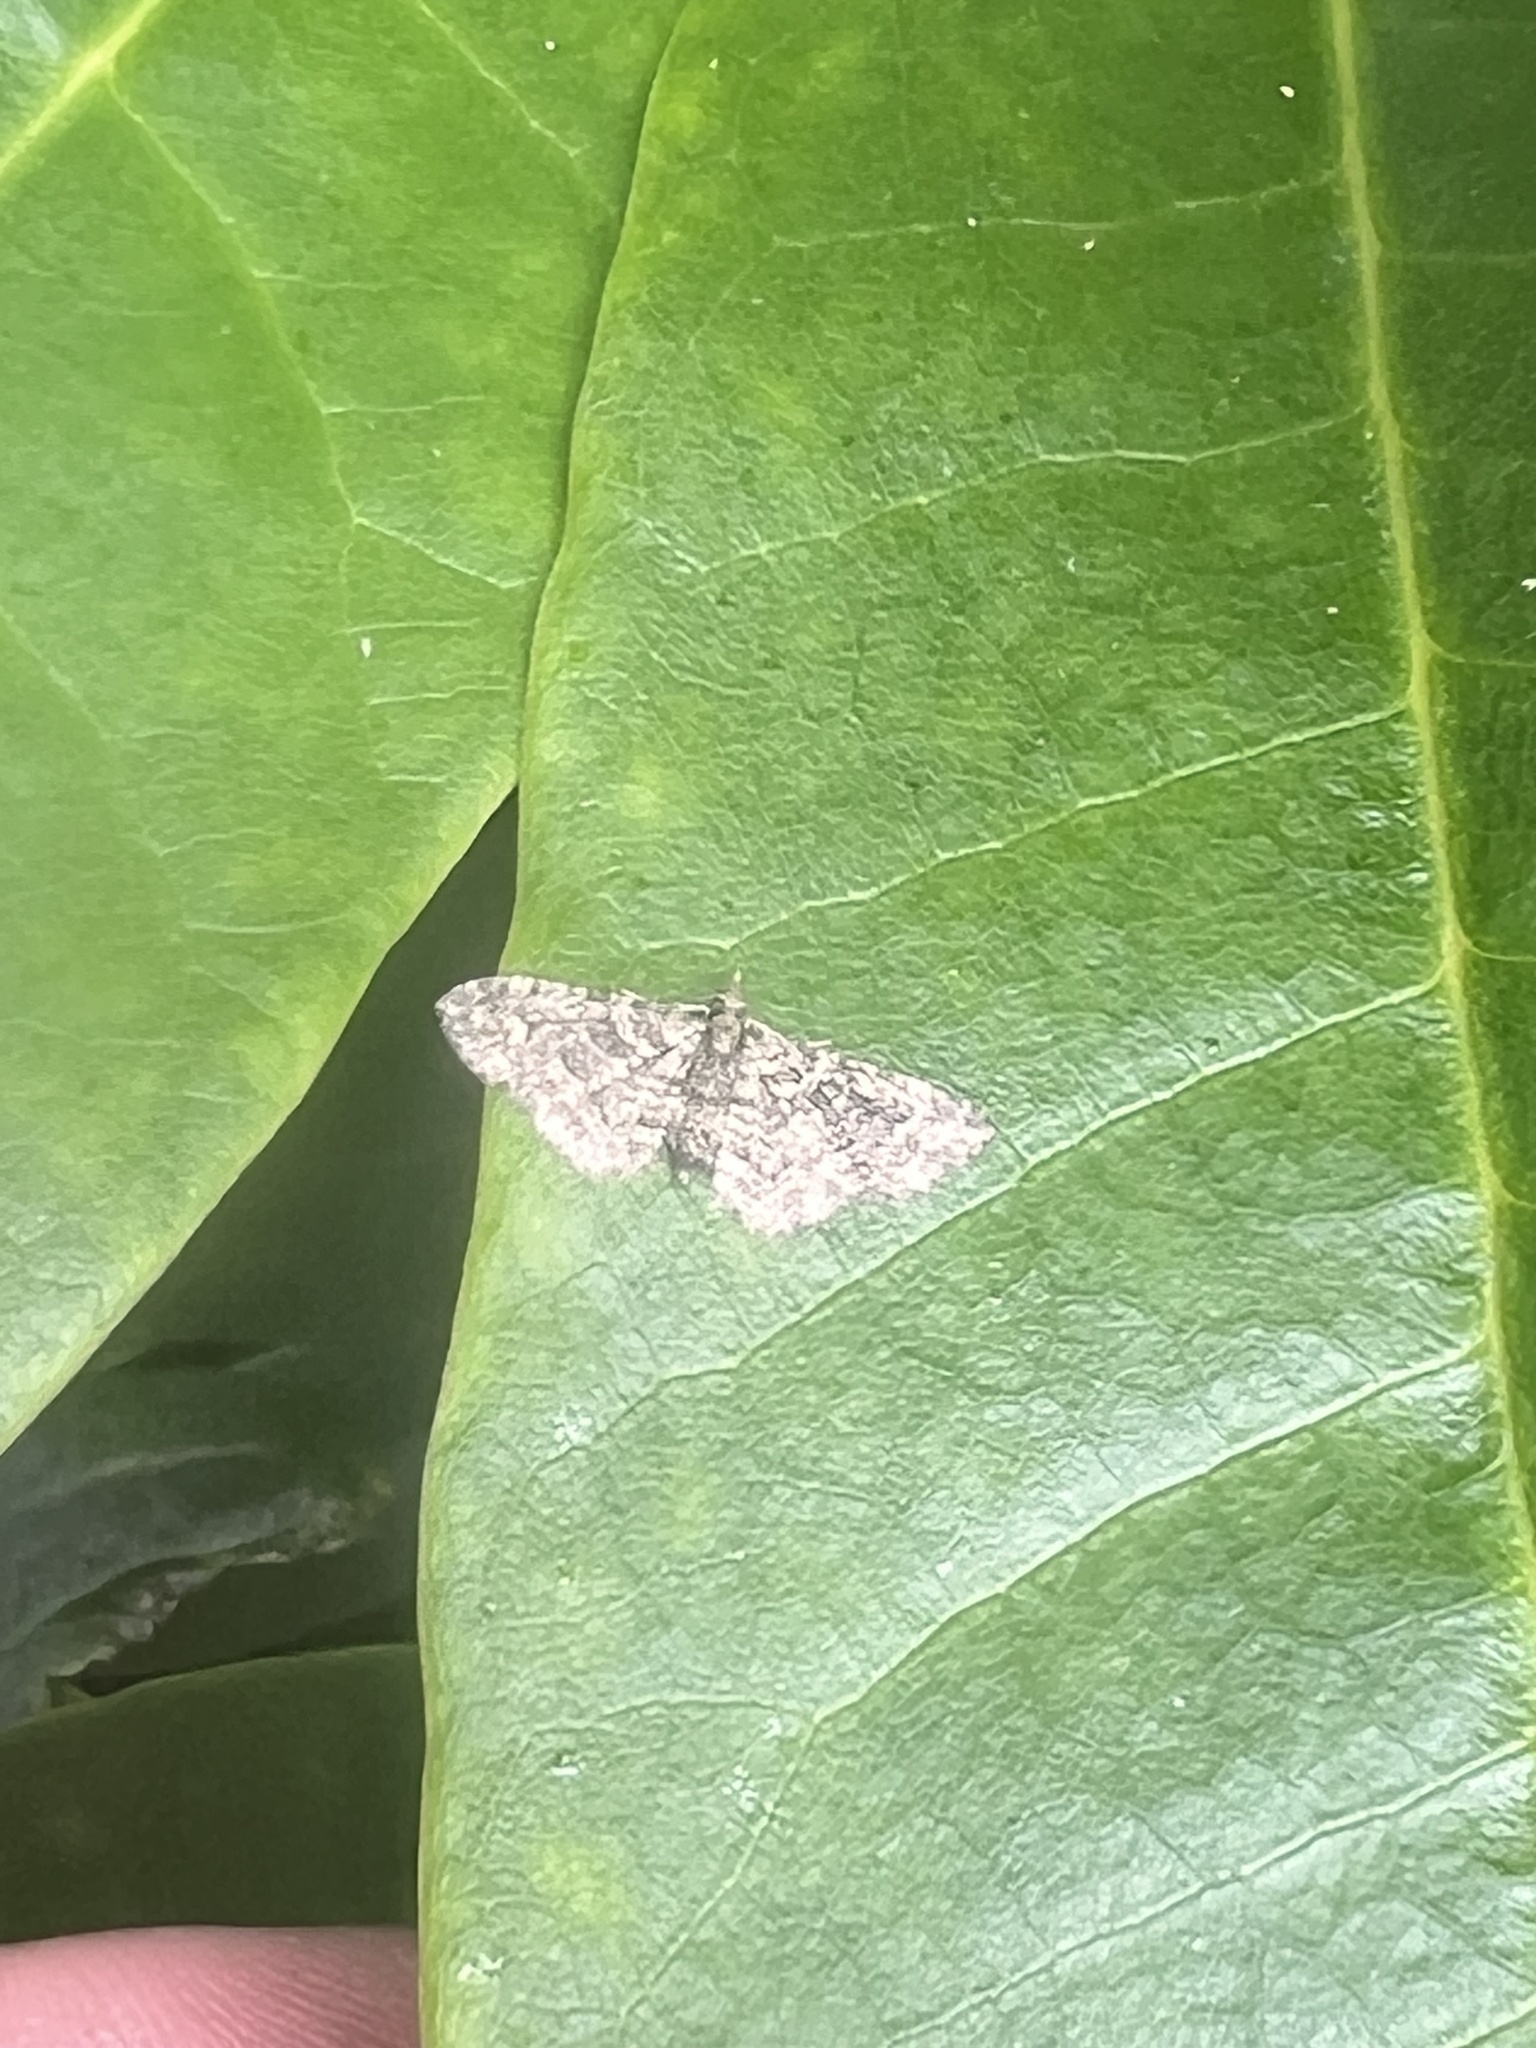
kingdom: Animalia
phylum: Arthropoda
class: Insecta
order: Lepidoptera
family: Geometridae
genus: Pasiphilodes
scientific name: Pasiphilodes testulata
